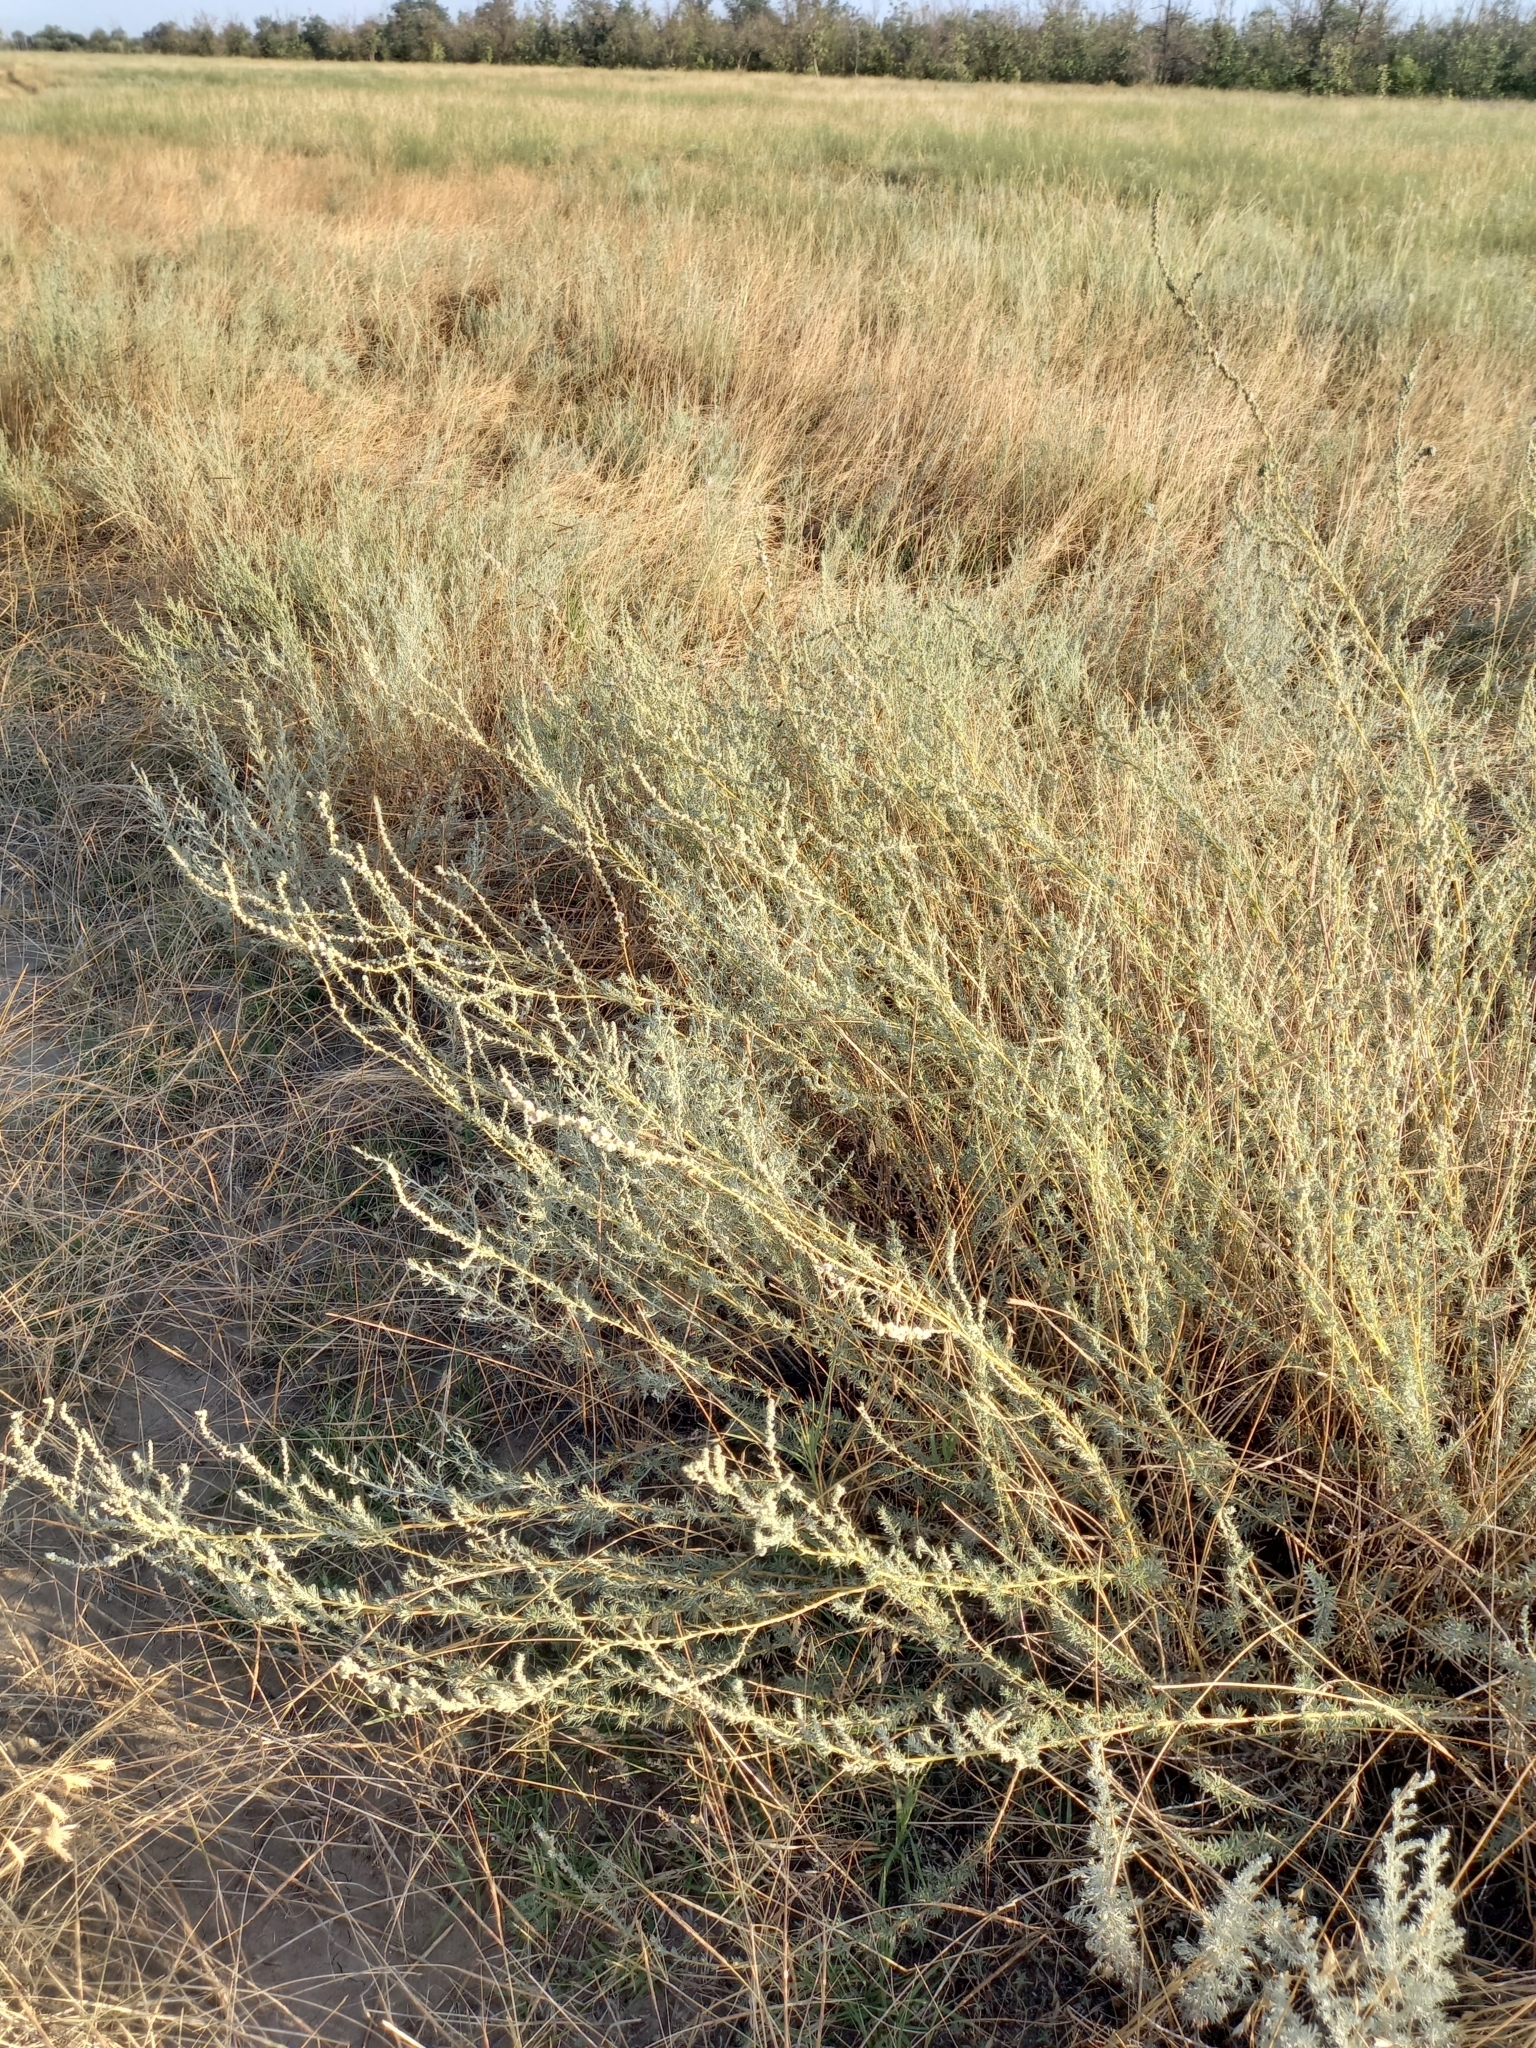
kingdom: Plantae
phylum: Tracheophyta
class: Magnoliopsida
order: Caryophyllales
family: Amaranthaceae
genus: Bassia
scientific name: Bassia prostrata
